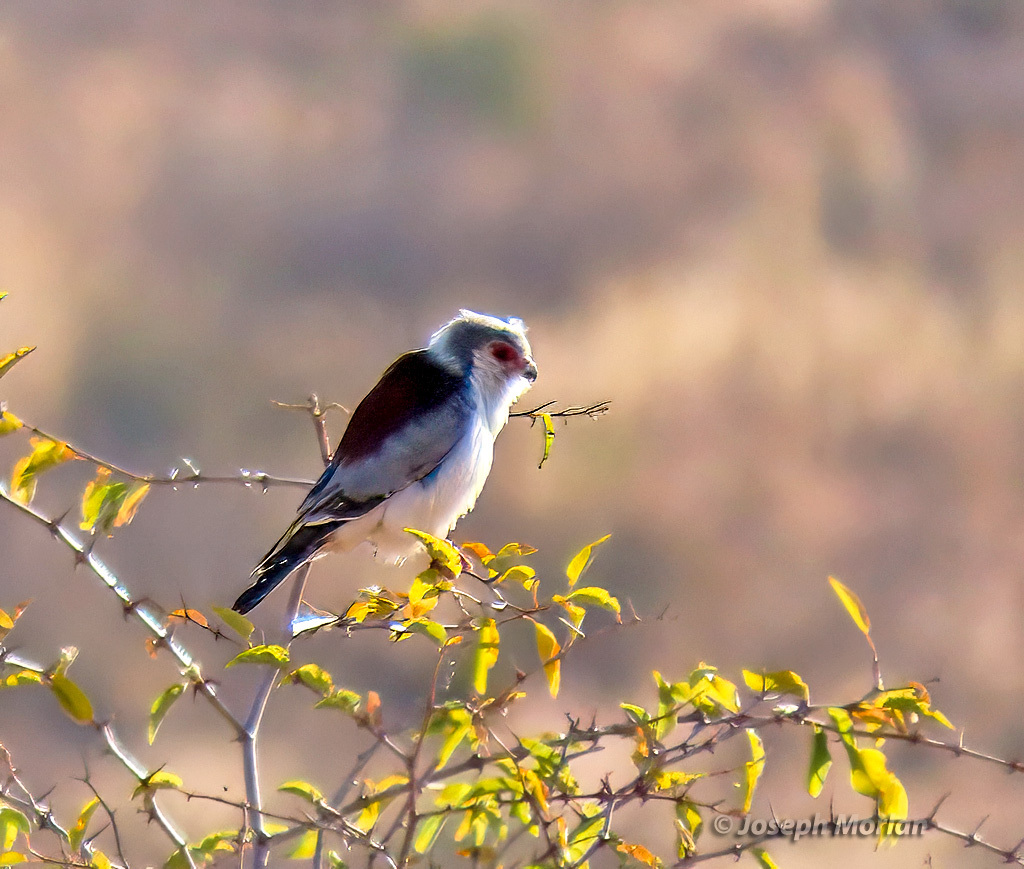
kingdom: Animalia
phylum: Chordata
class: Aves
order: Falconiformes
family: Falconidae
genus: Polihierax
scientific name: Polihierax semitorquatus
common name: Pygmy falcon
